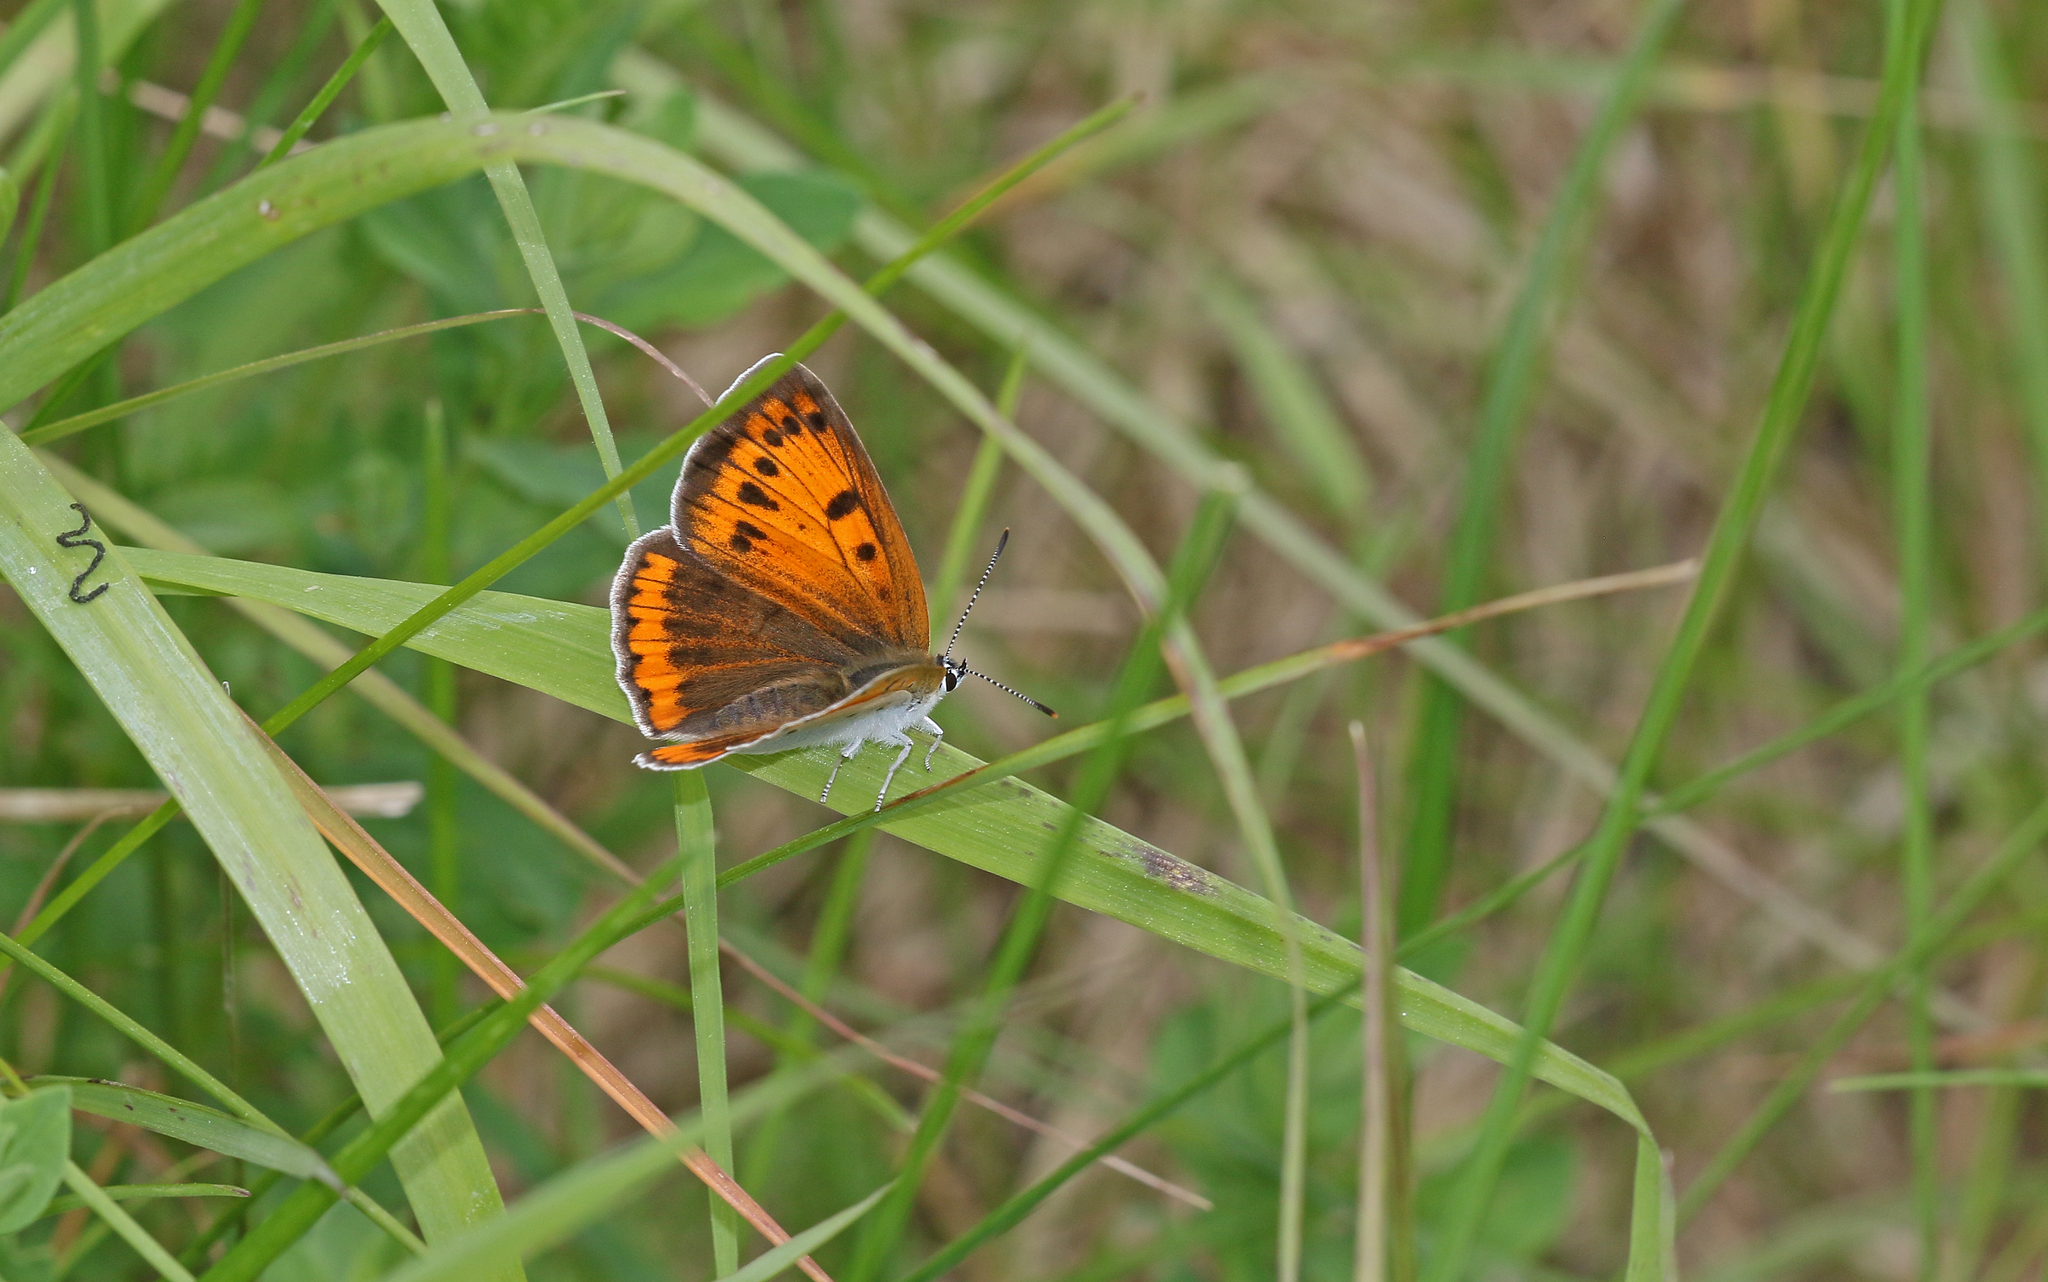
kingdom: Animalia
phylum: Arthropoda
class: Insecta
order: Lepidoptera
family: Lycaenidae
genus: Lycaena
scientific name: Lycaena dispar
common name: Large copper
